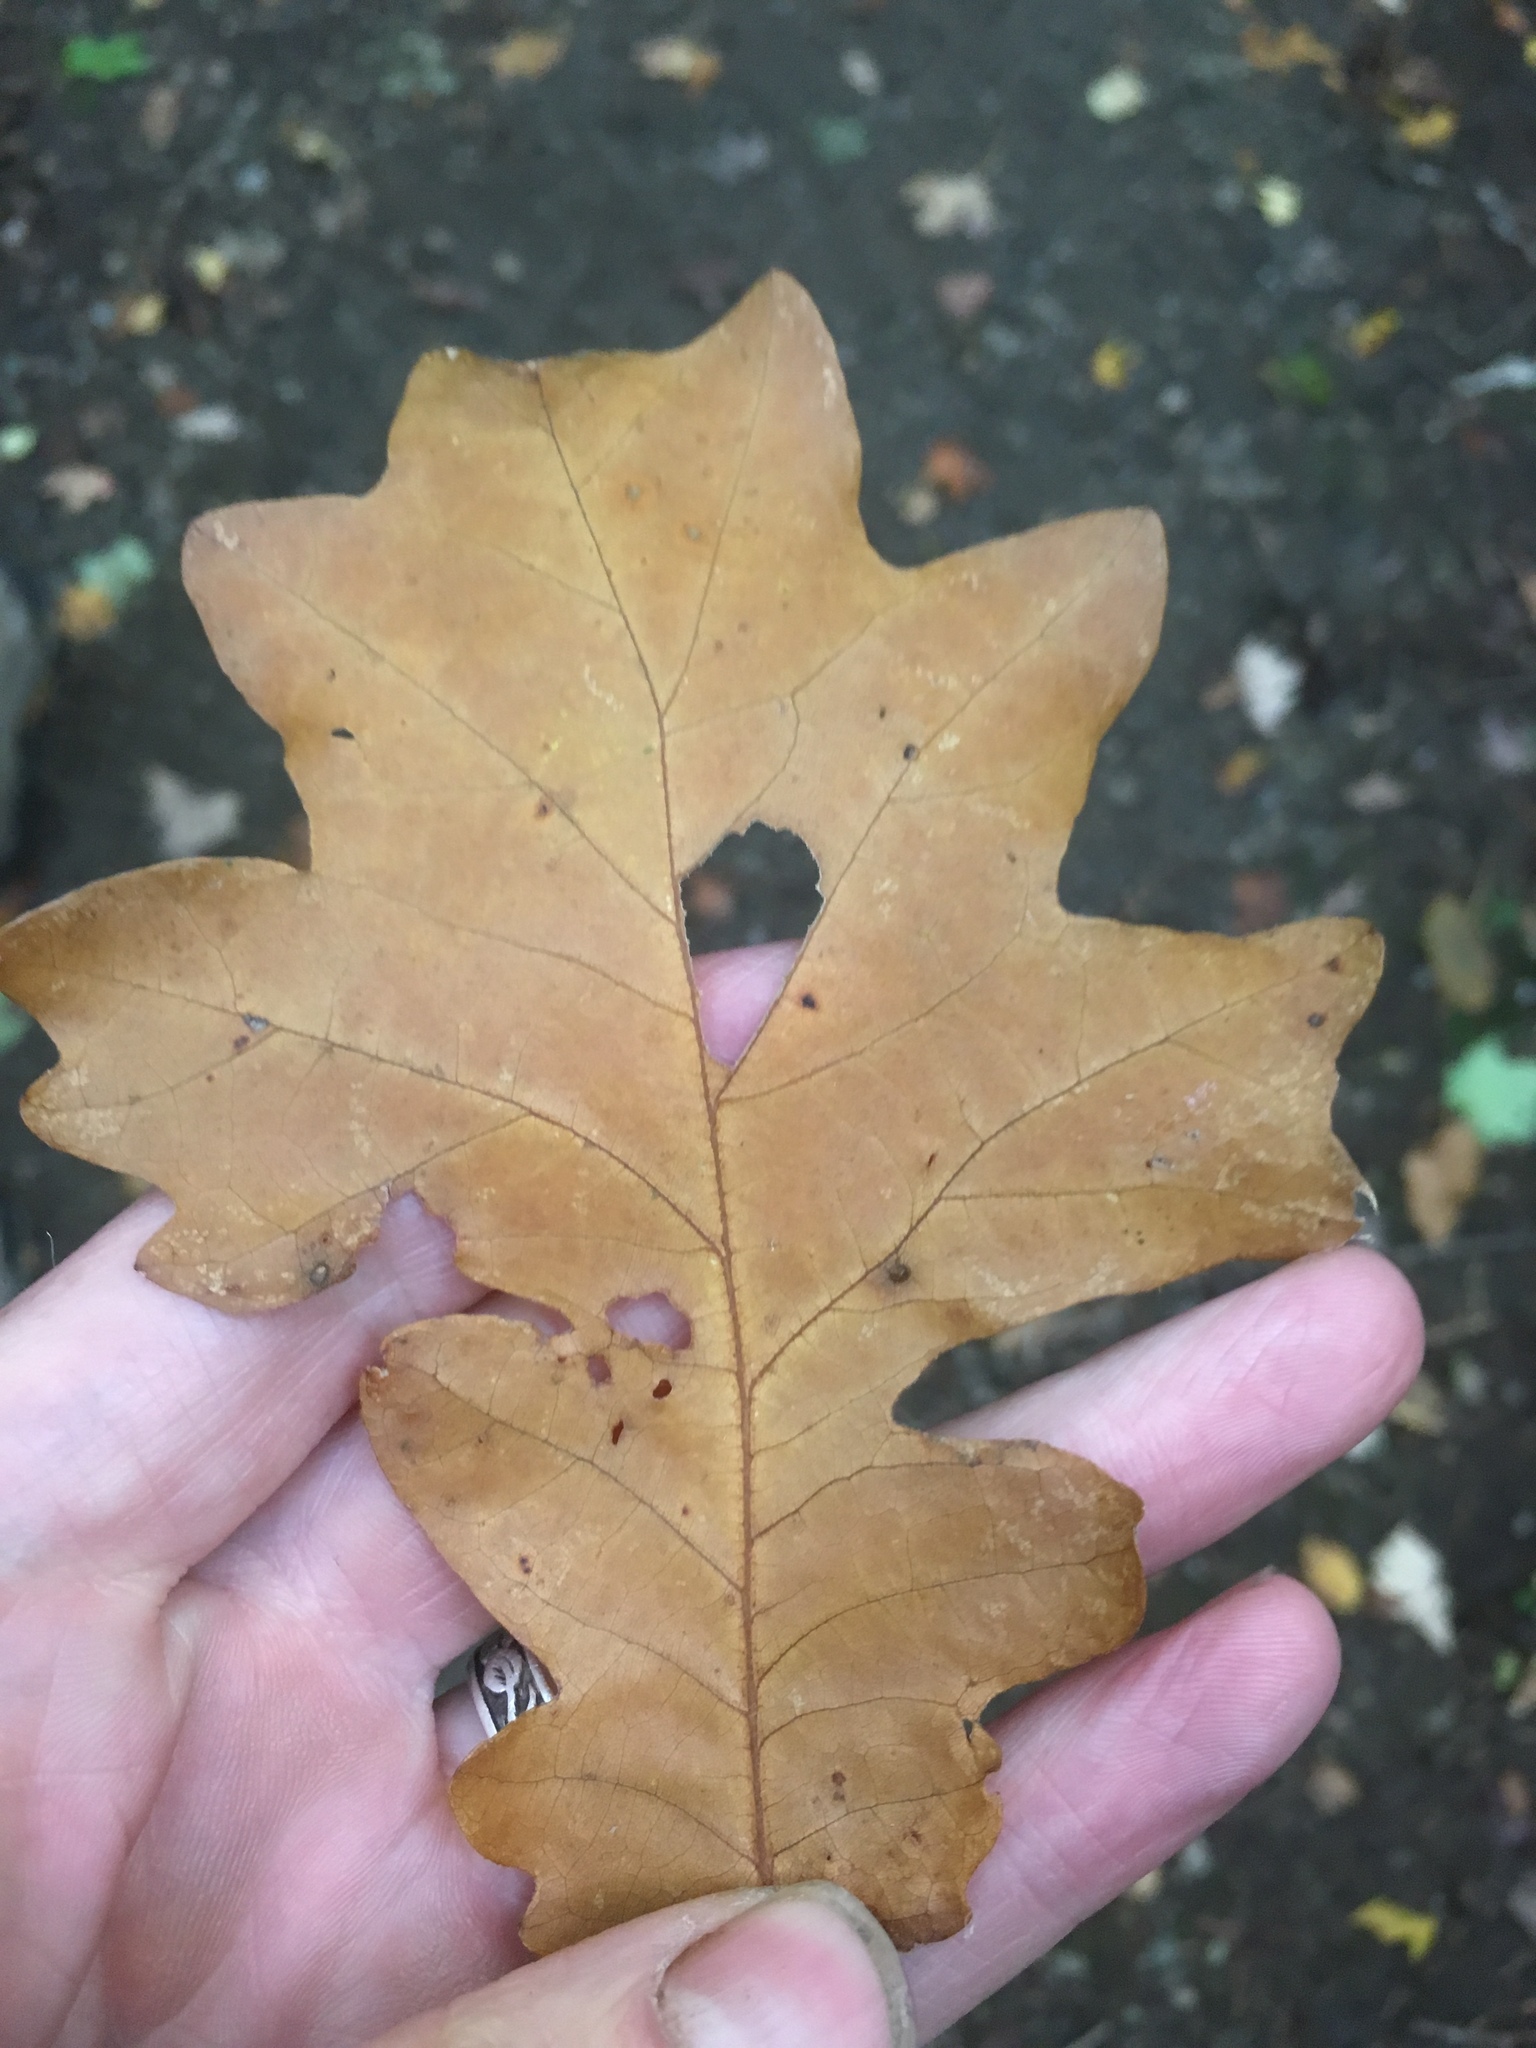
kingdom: Plantae
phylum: Tracheophyta
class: Magnoliopsida
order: Fagales
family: Fagaceae
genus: Quercus
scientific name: Quercus macrocarpa
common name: Bur oak
